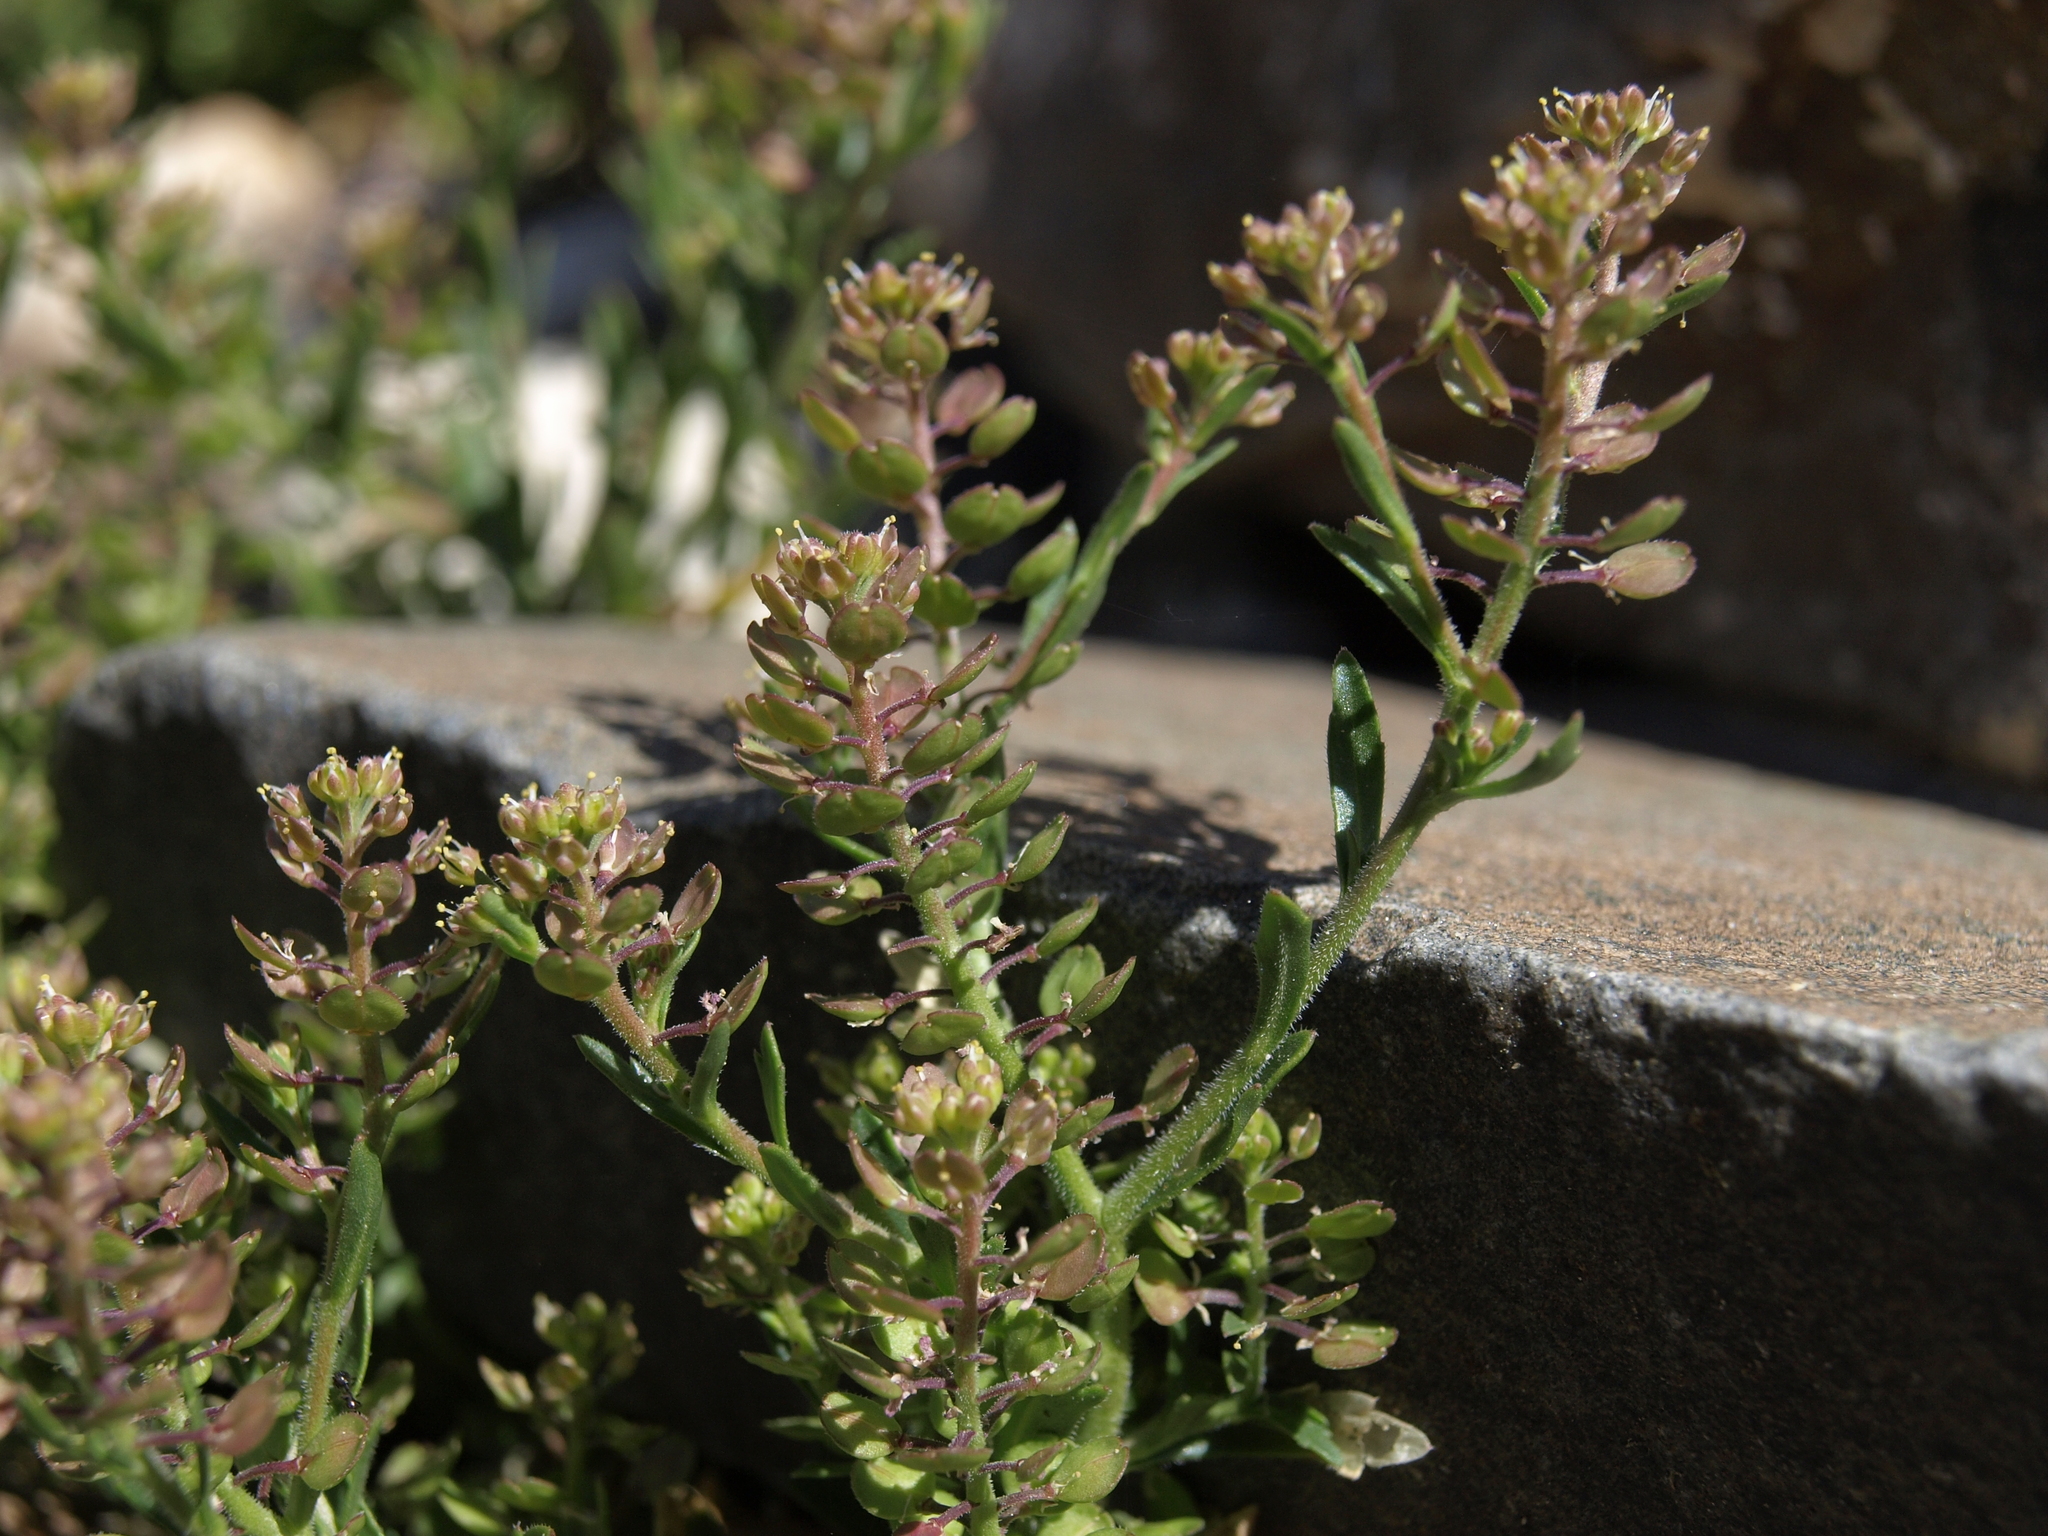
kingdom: Plantae
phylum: Tracheophyta
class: Magnoliopsida
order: Brassicales
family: Brassicaceae
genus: Lepidium
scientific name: Lepidium lasiocarpum
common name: Hairy-pod pepperwort
